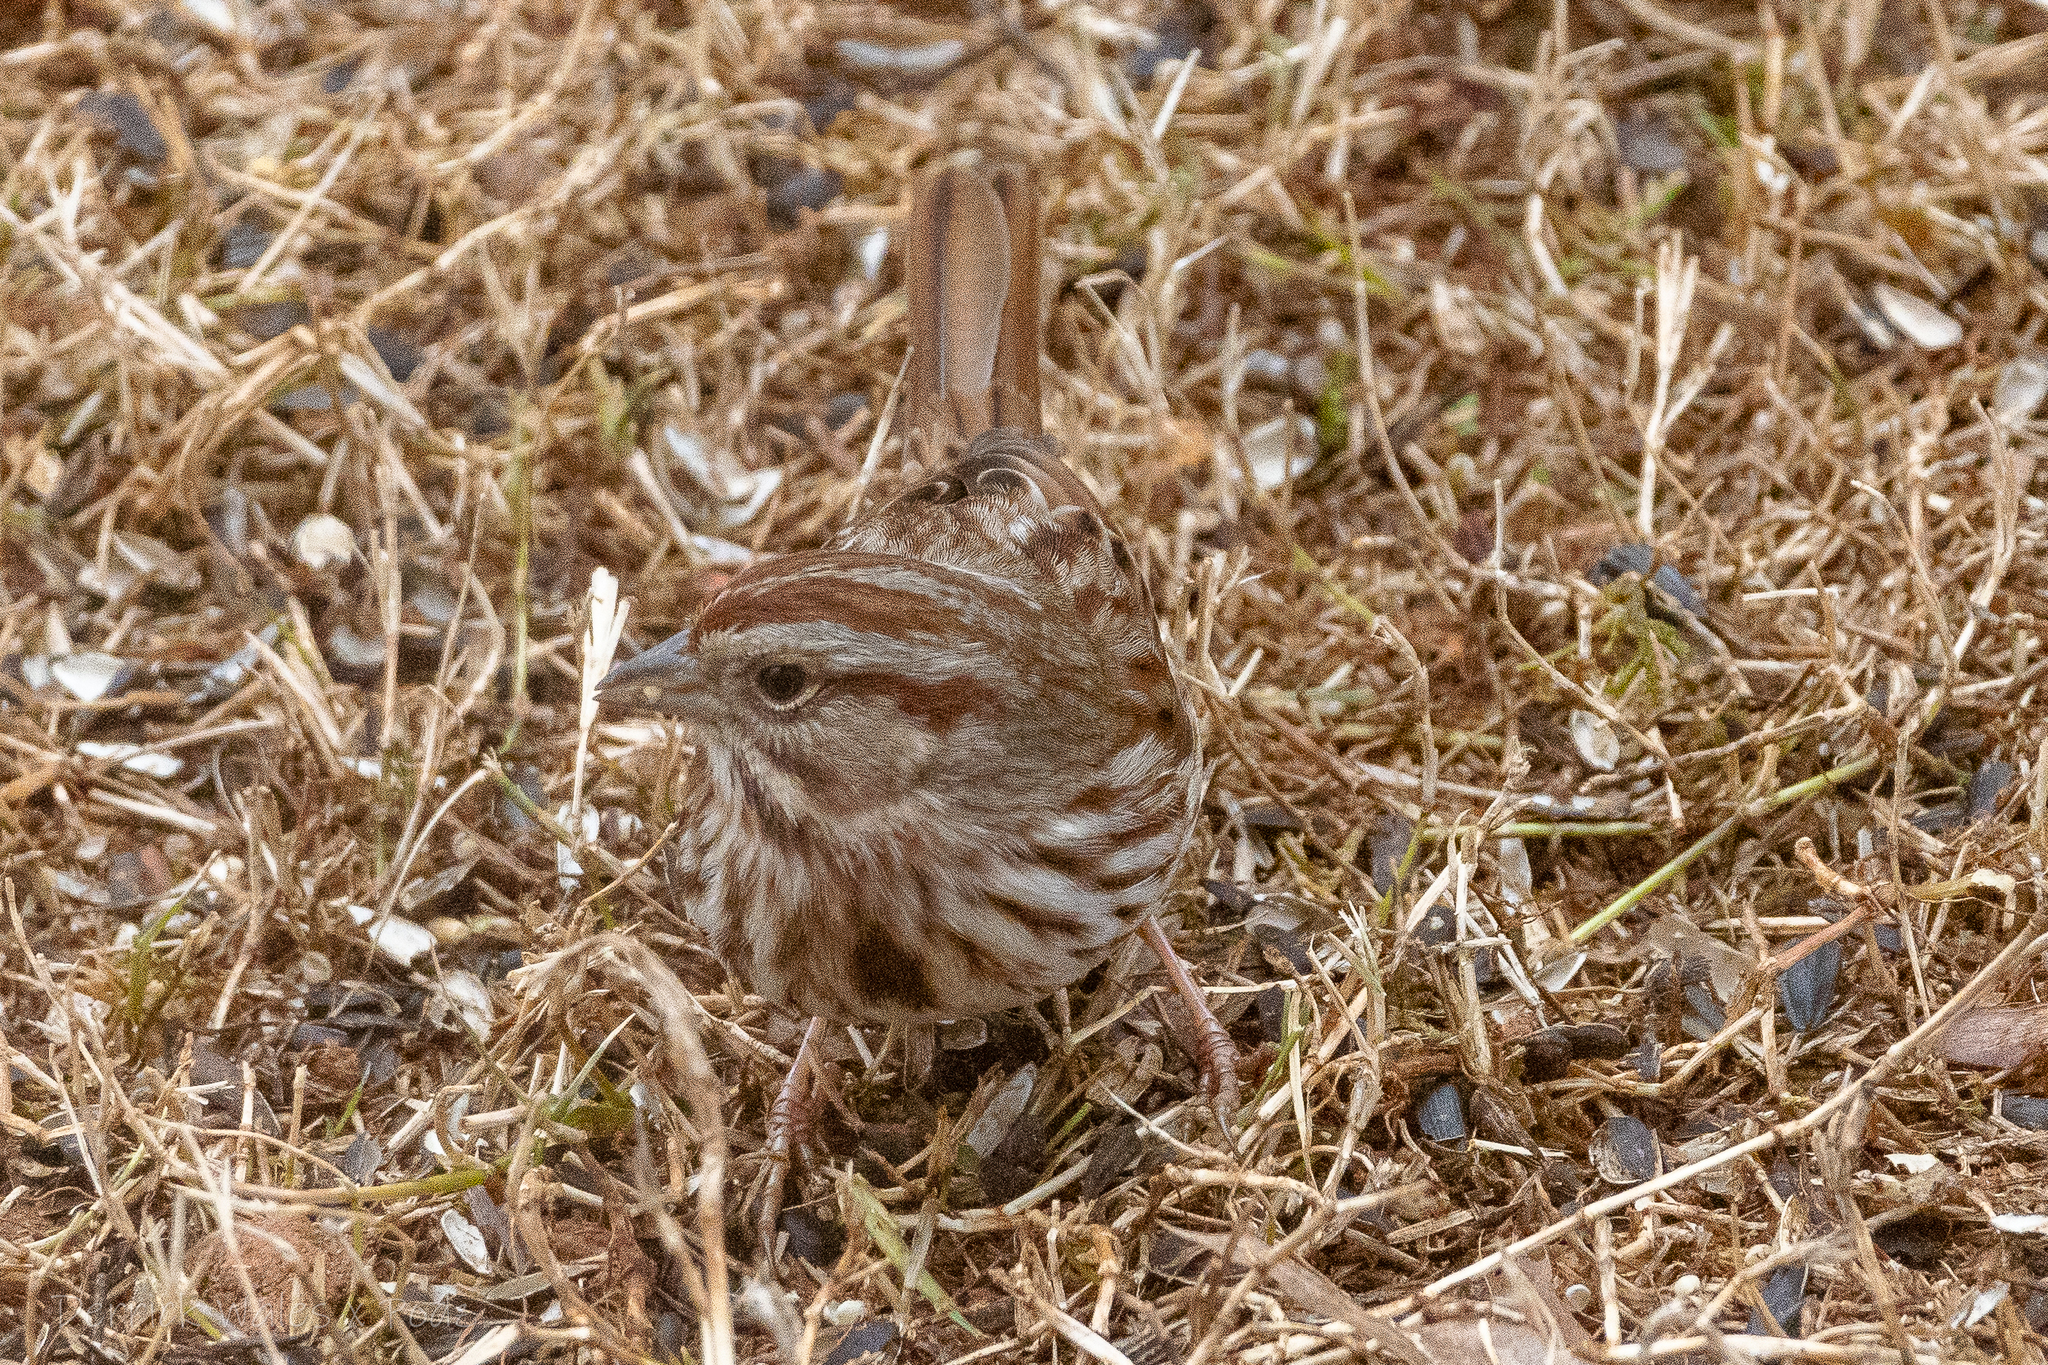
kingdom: Animalia
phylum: Chordata
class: Aves
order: Passeriformes
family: Passerellidae
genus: Melospiza
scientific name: Melospiza melodia
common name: Song sparrow
